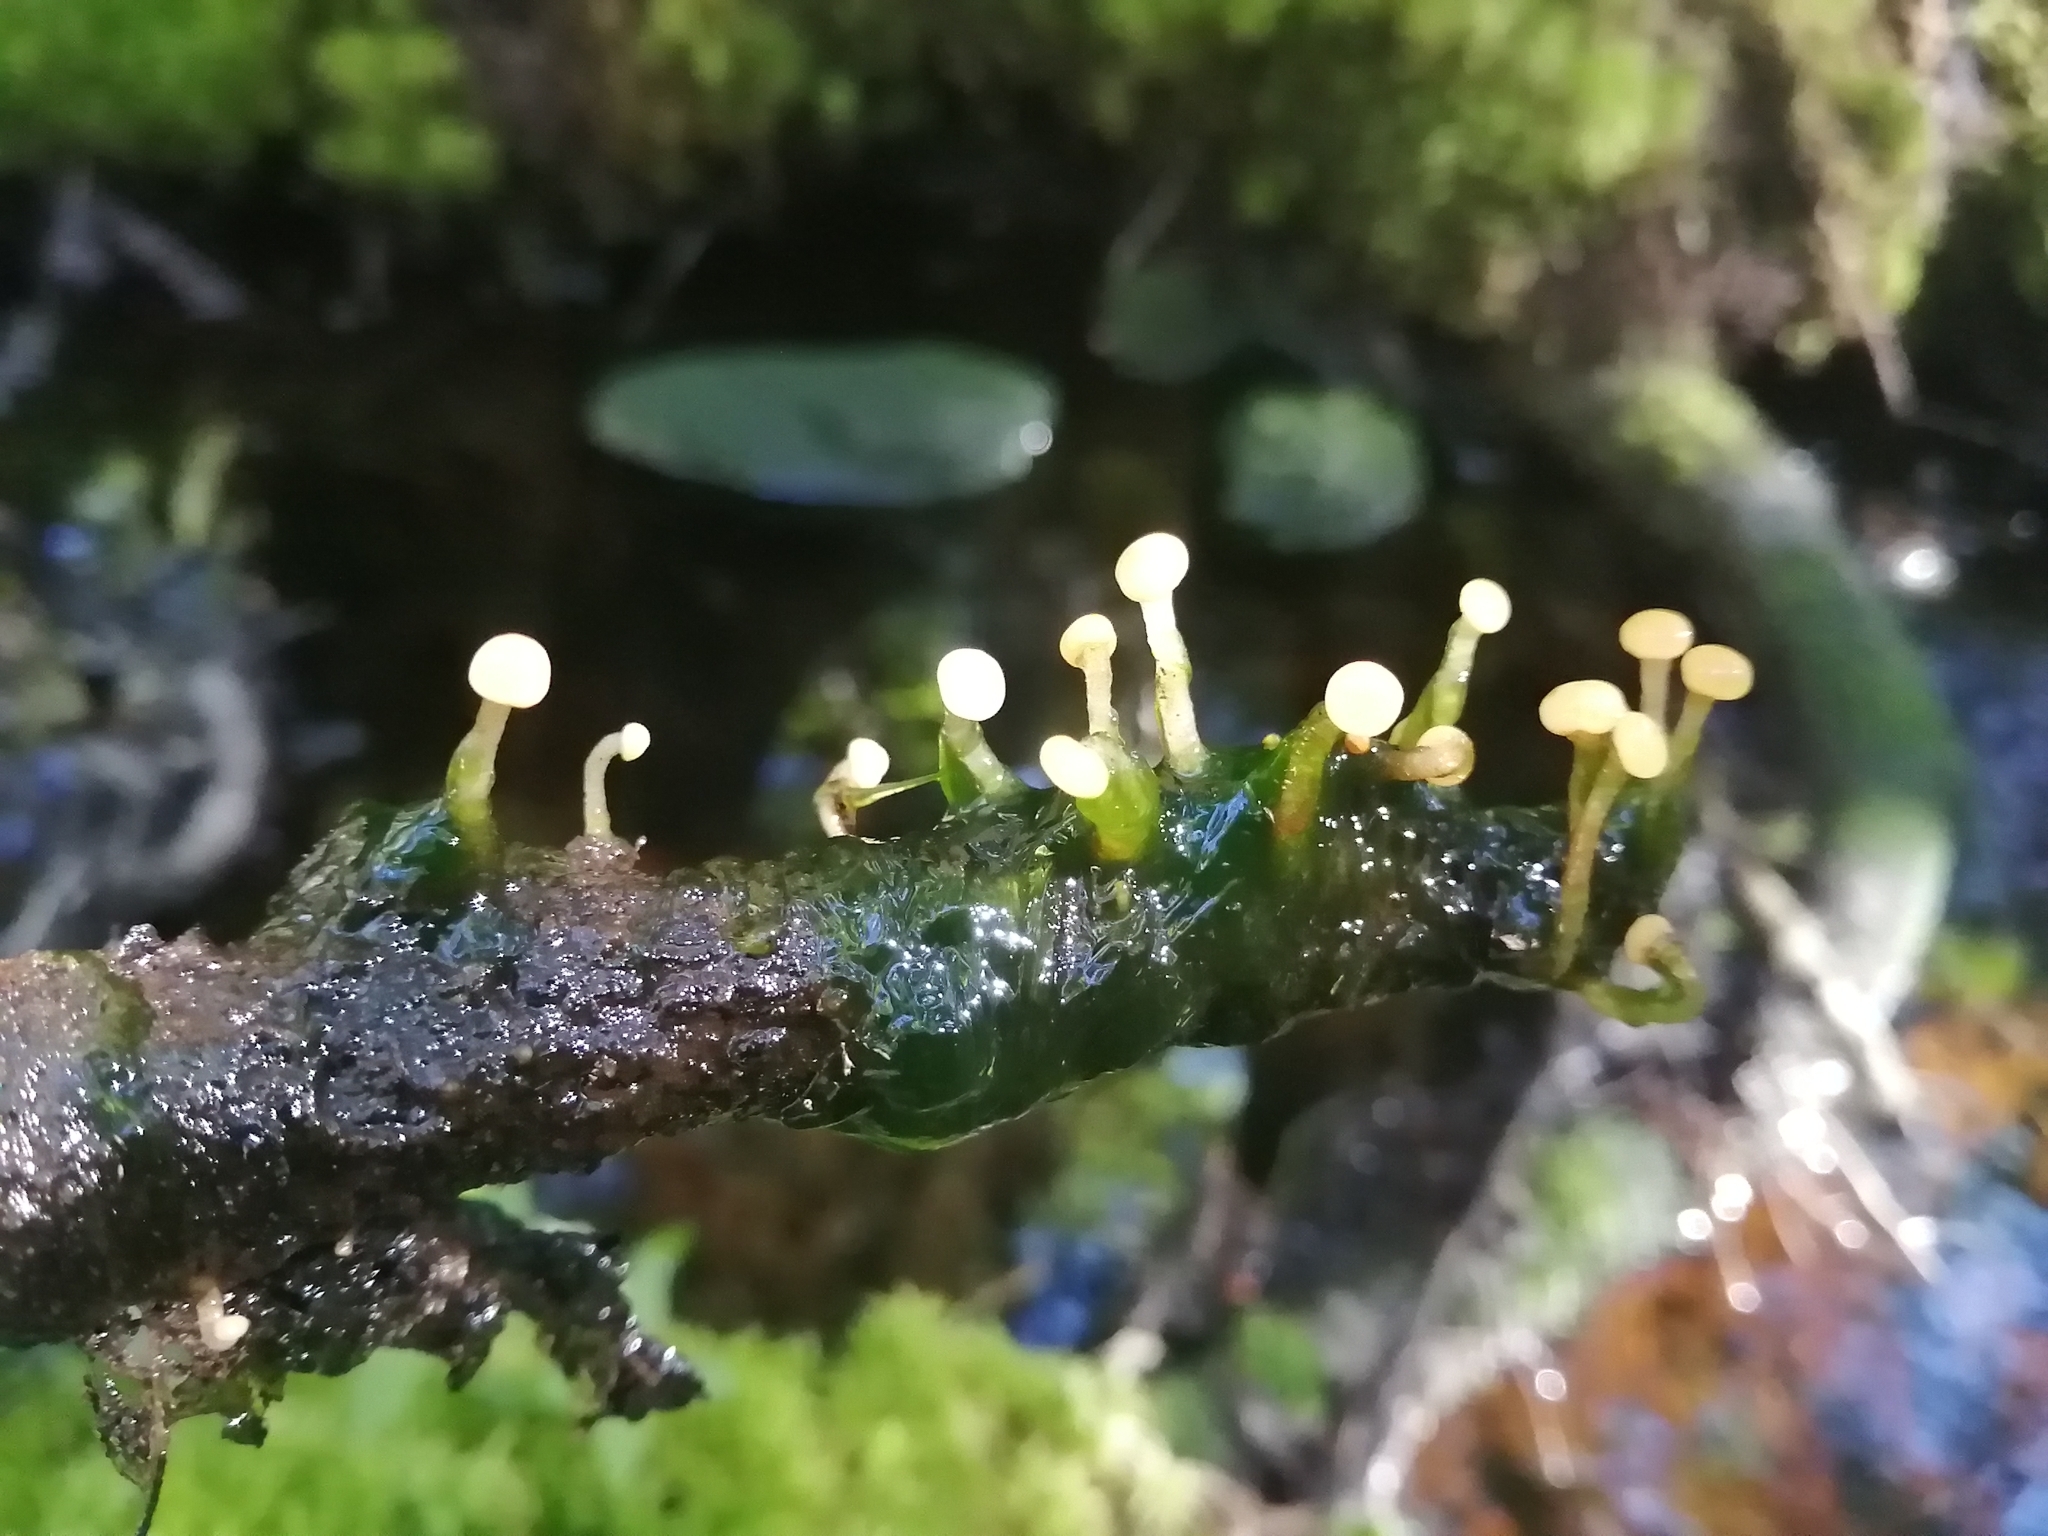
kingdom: Fungi
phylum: Ascomycota
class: Leotiomycetes
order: Helotiales
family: Vibrisseaceae
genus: Vibrissea
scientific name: Vibrissea truncorum
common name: Stream beacon
